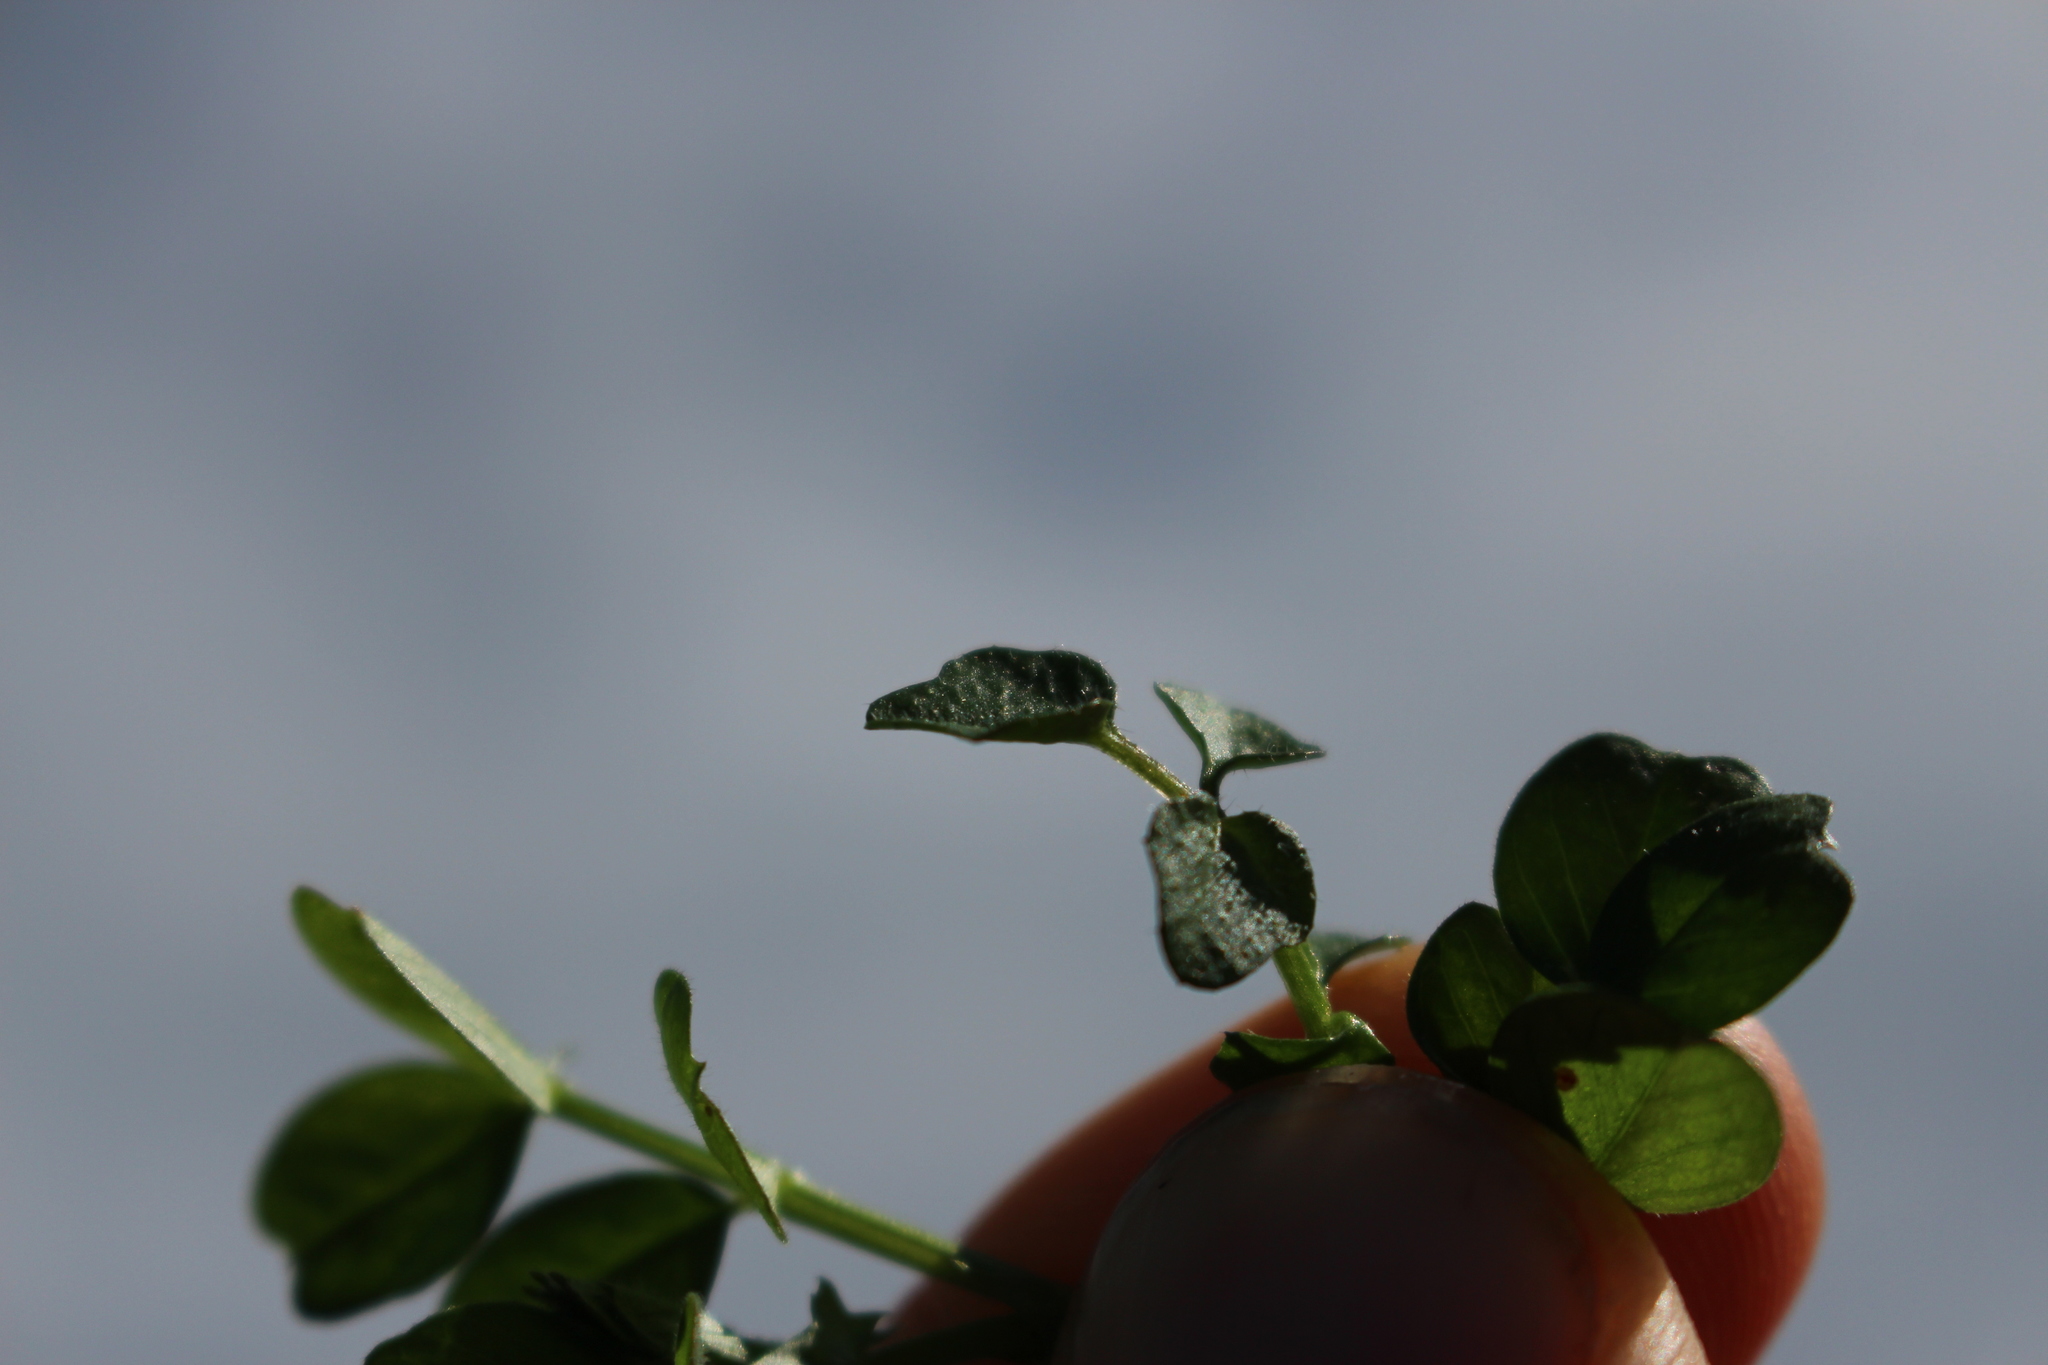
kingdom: Plantae
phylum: Tracheophyta
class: Magnoliopsida
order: Brassicales
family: Brassicaceae
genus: Cardamine
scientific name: Cardamine hirsuta
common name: Hairy bittercress
